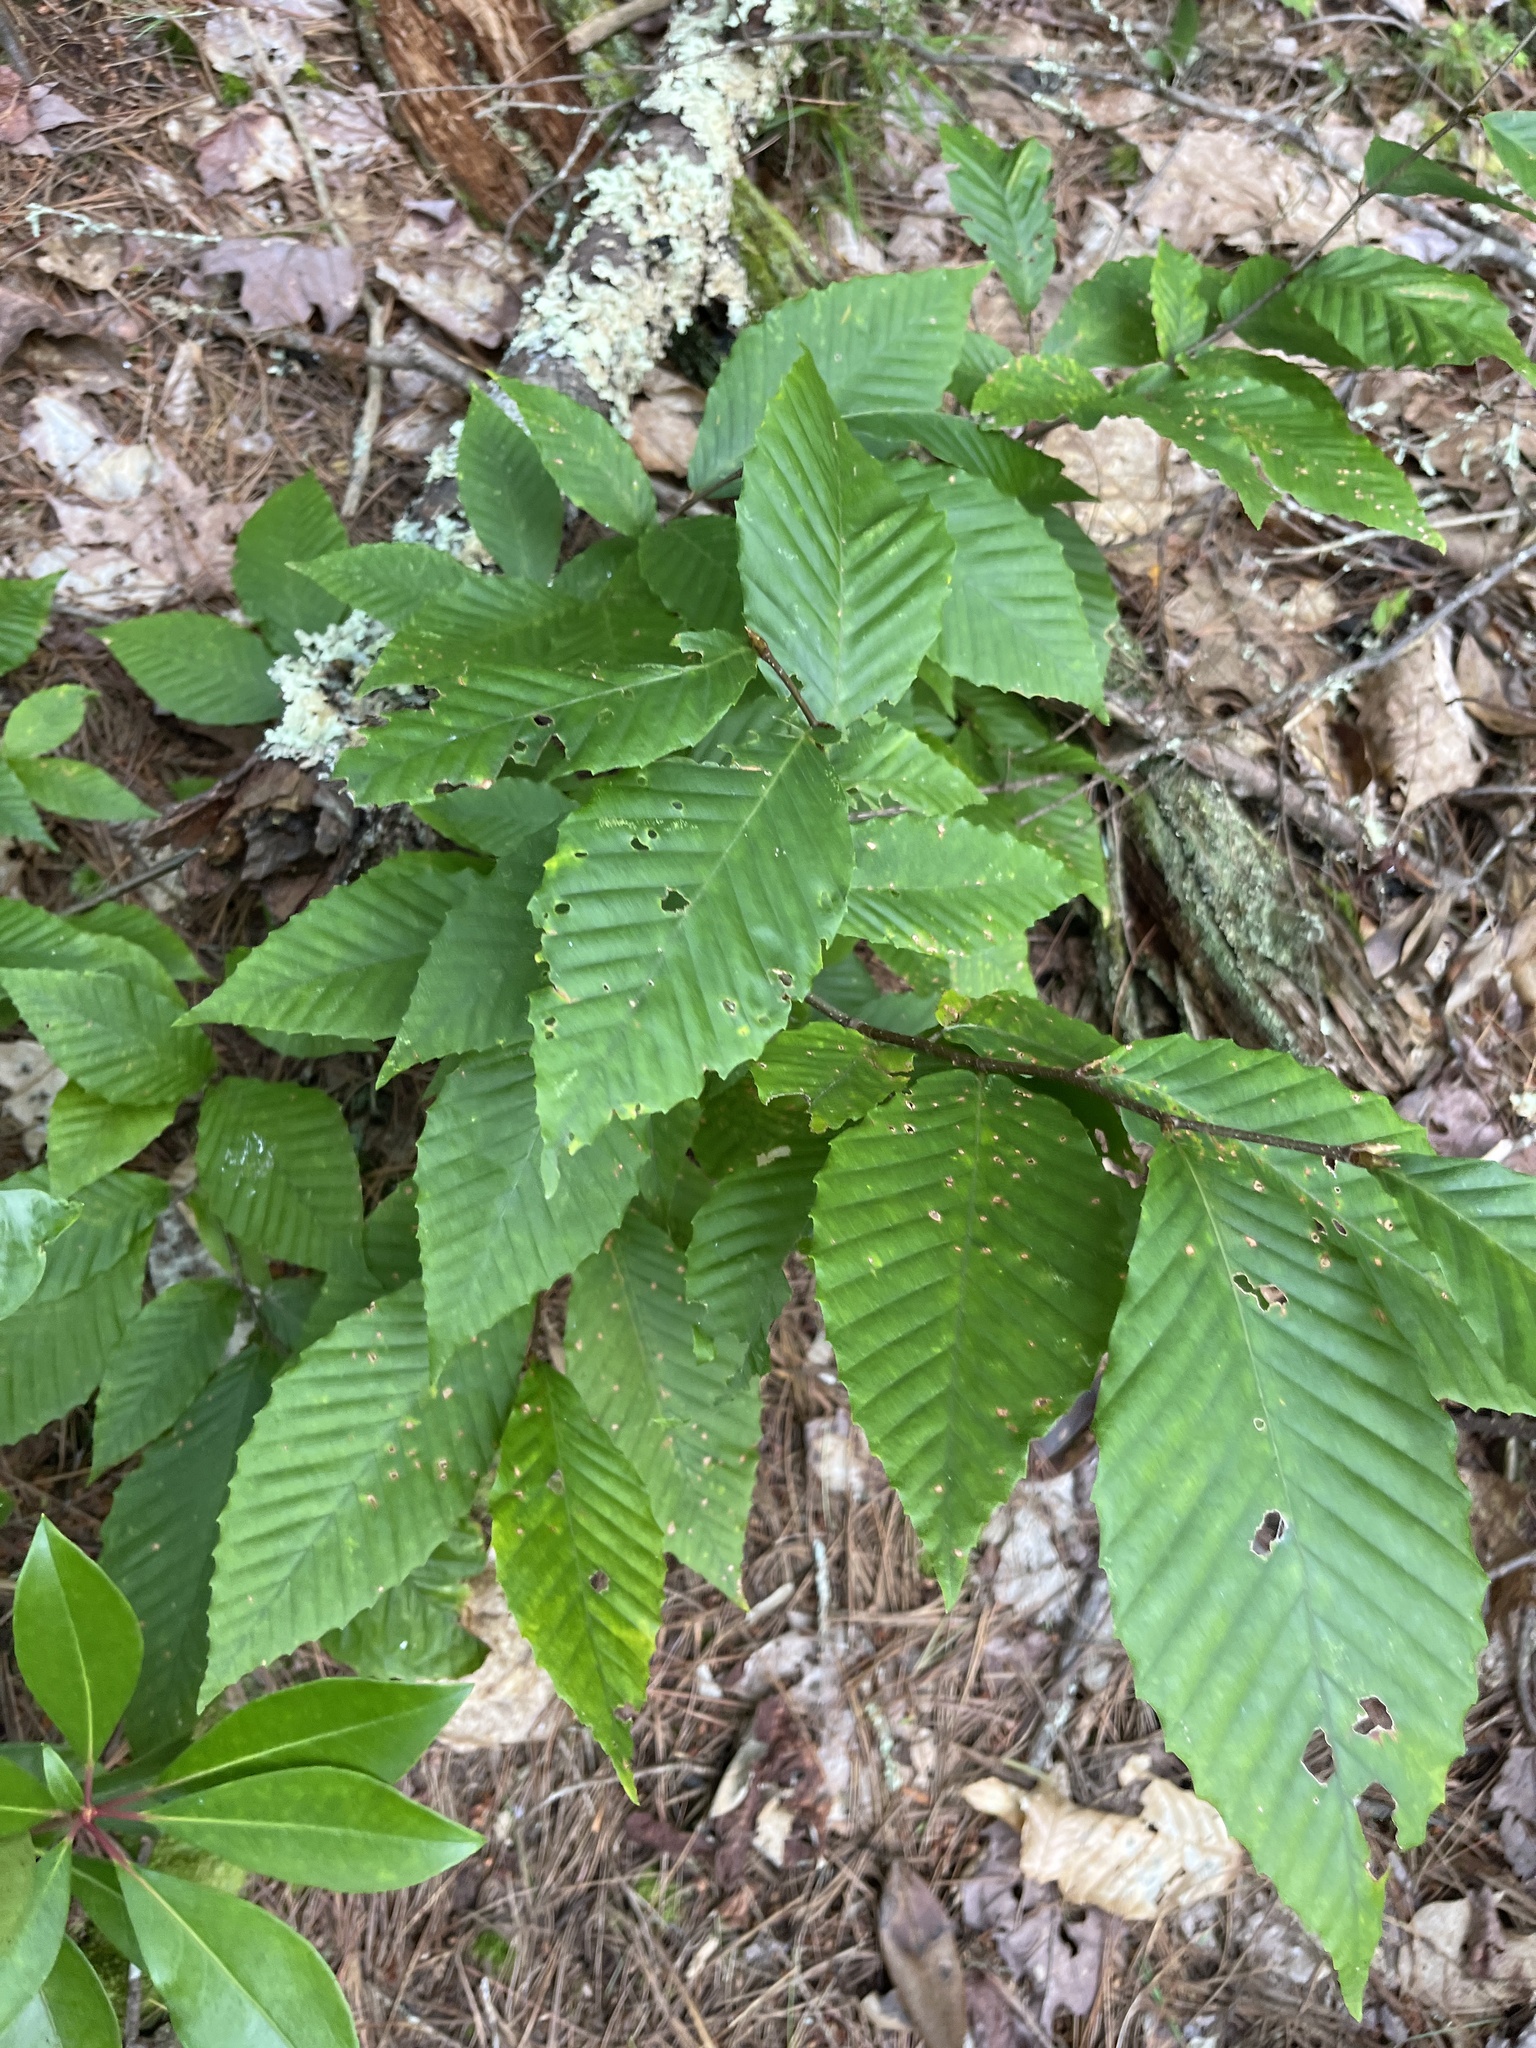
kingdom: Plantae
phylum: Tracheophyta
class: Magnoliopsida
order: Fagales
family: Fagaceae
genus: Fagus
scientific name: Fagus grandifolia
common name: American beech
